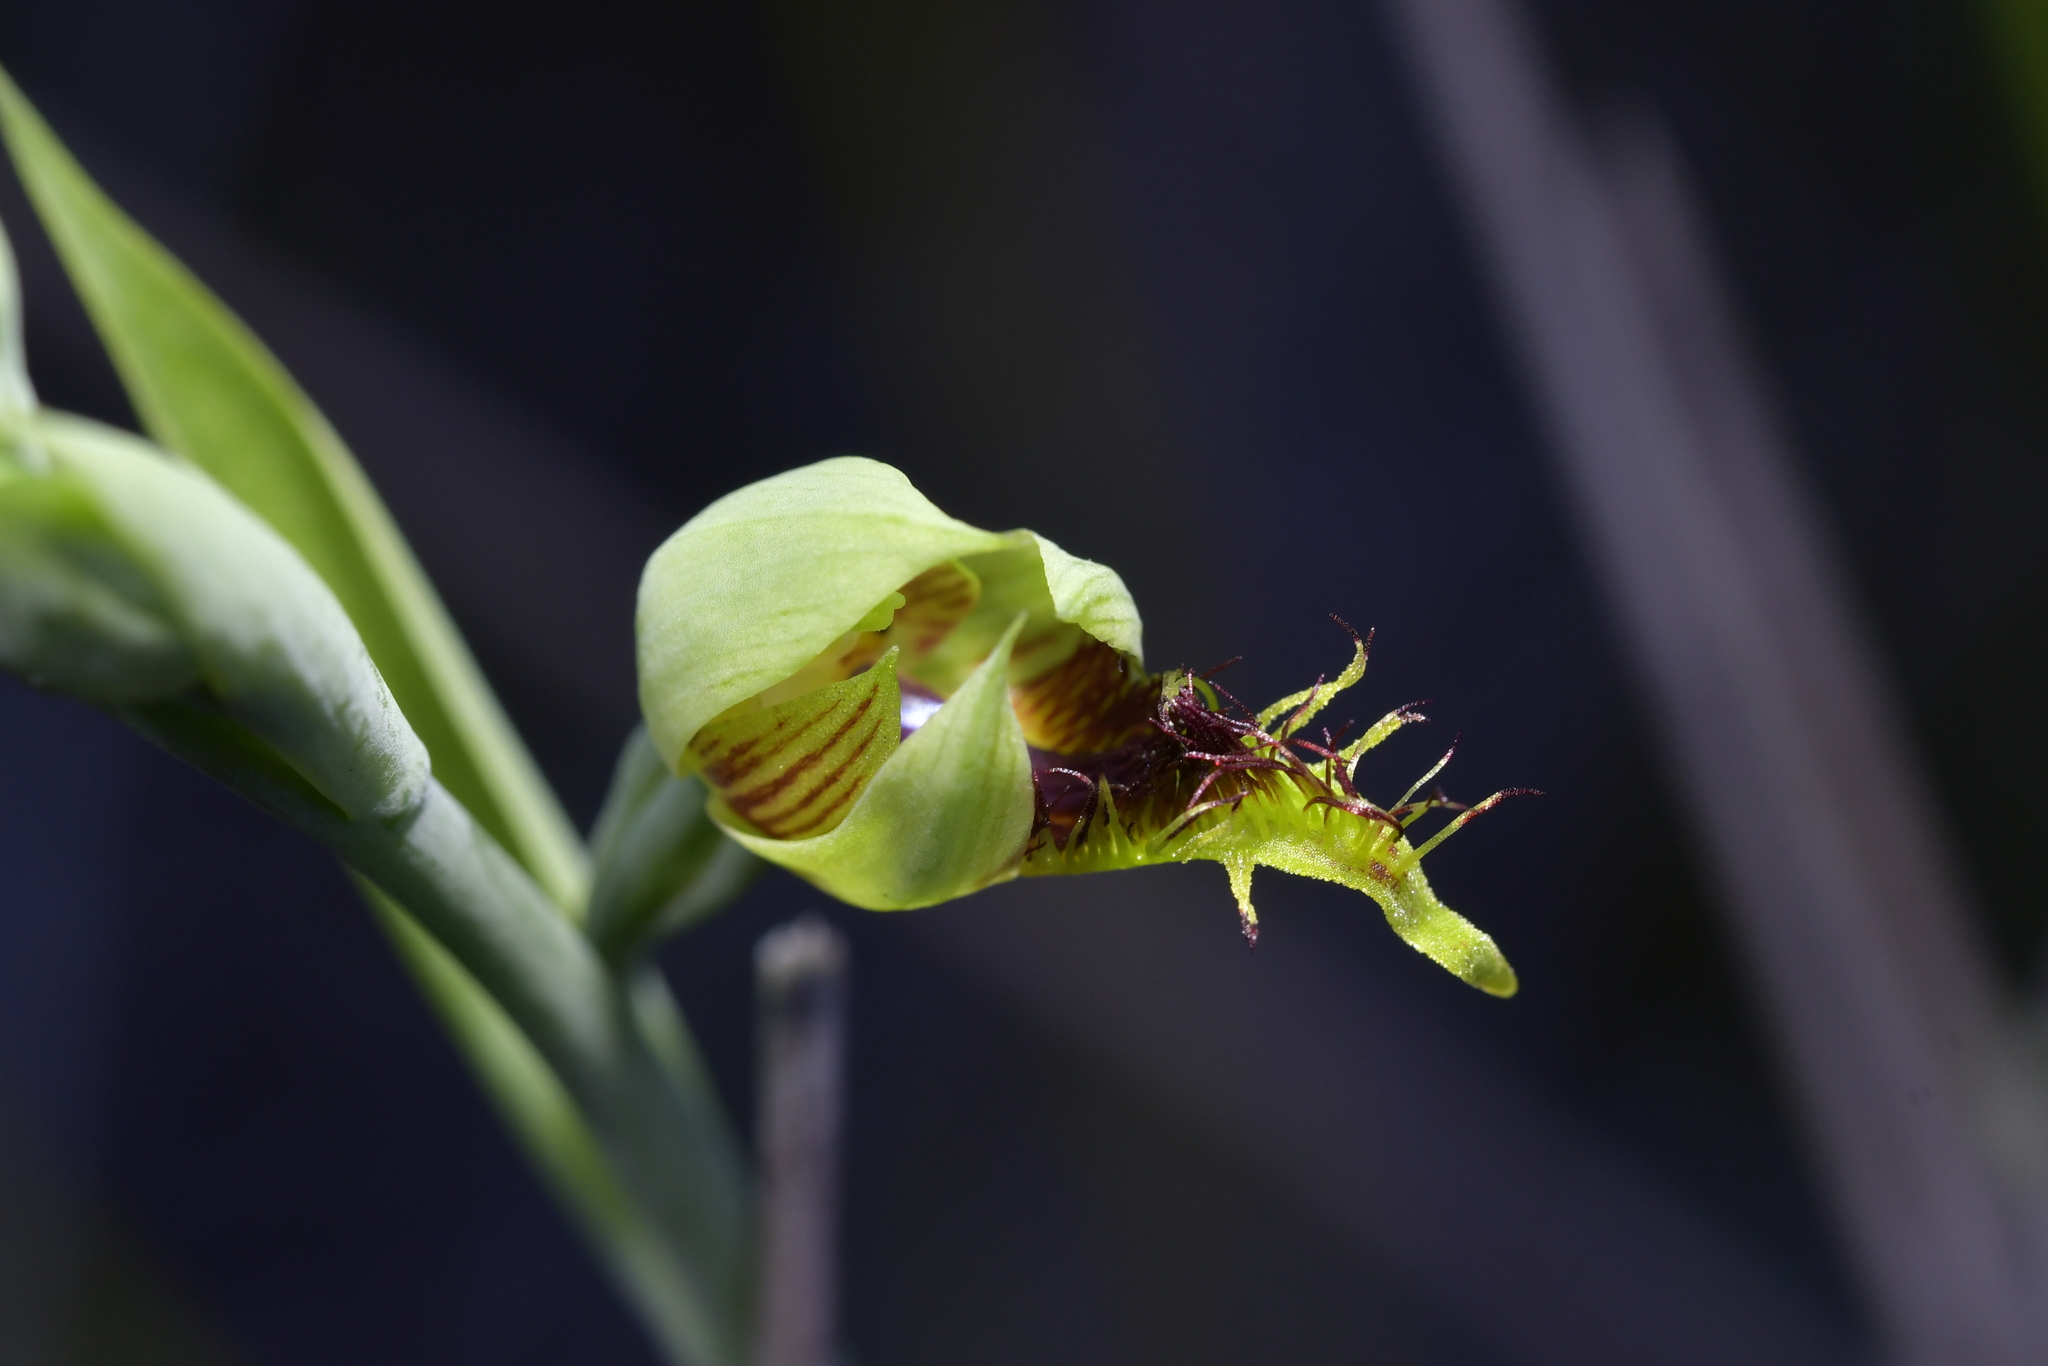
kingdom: Plantae
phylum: Tracheophyta
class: Liliopsida
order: Asparagales
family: Orchidaceae
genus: Calochilus
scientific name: Calochilus herbaceus
